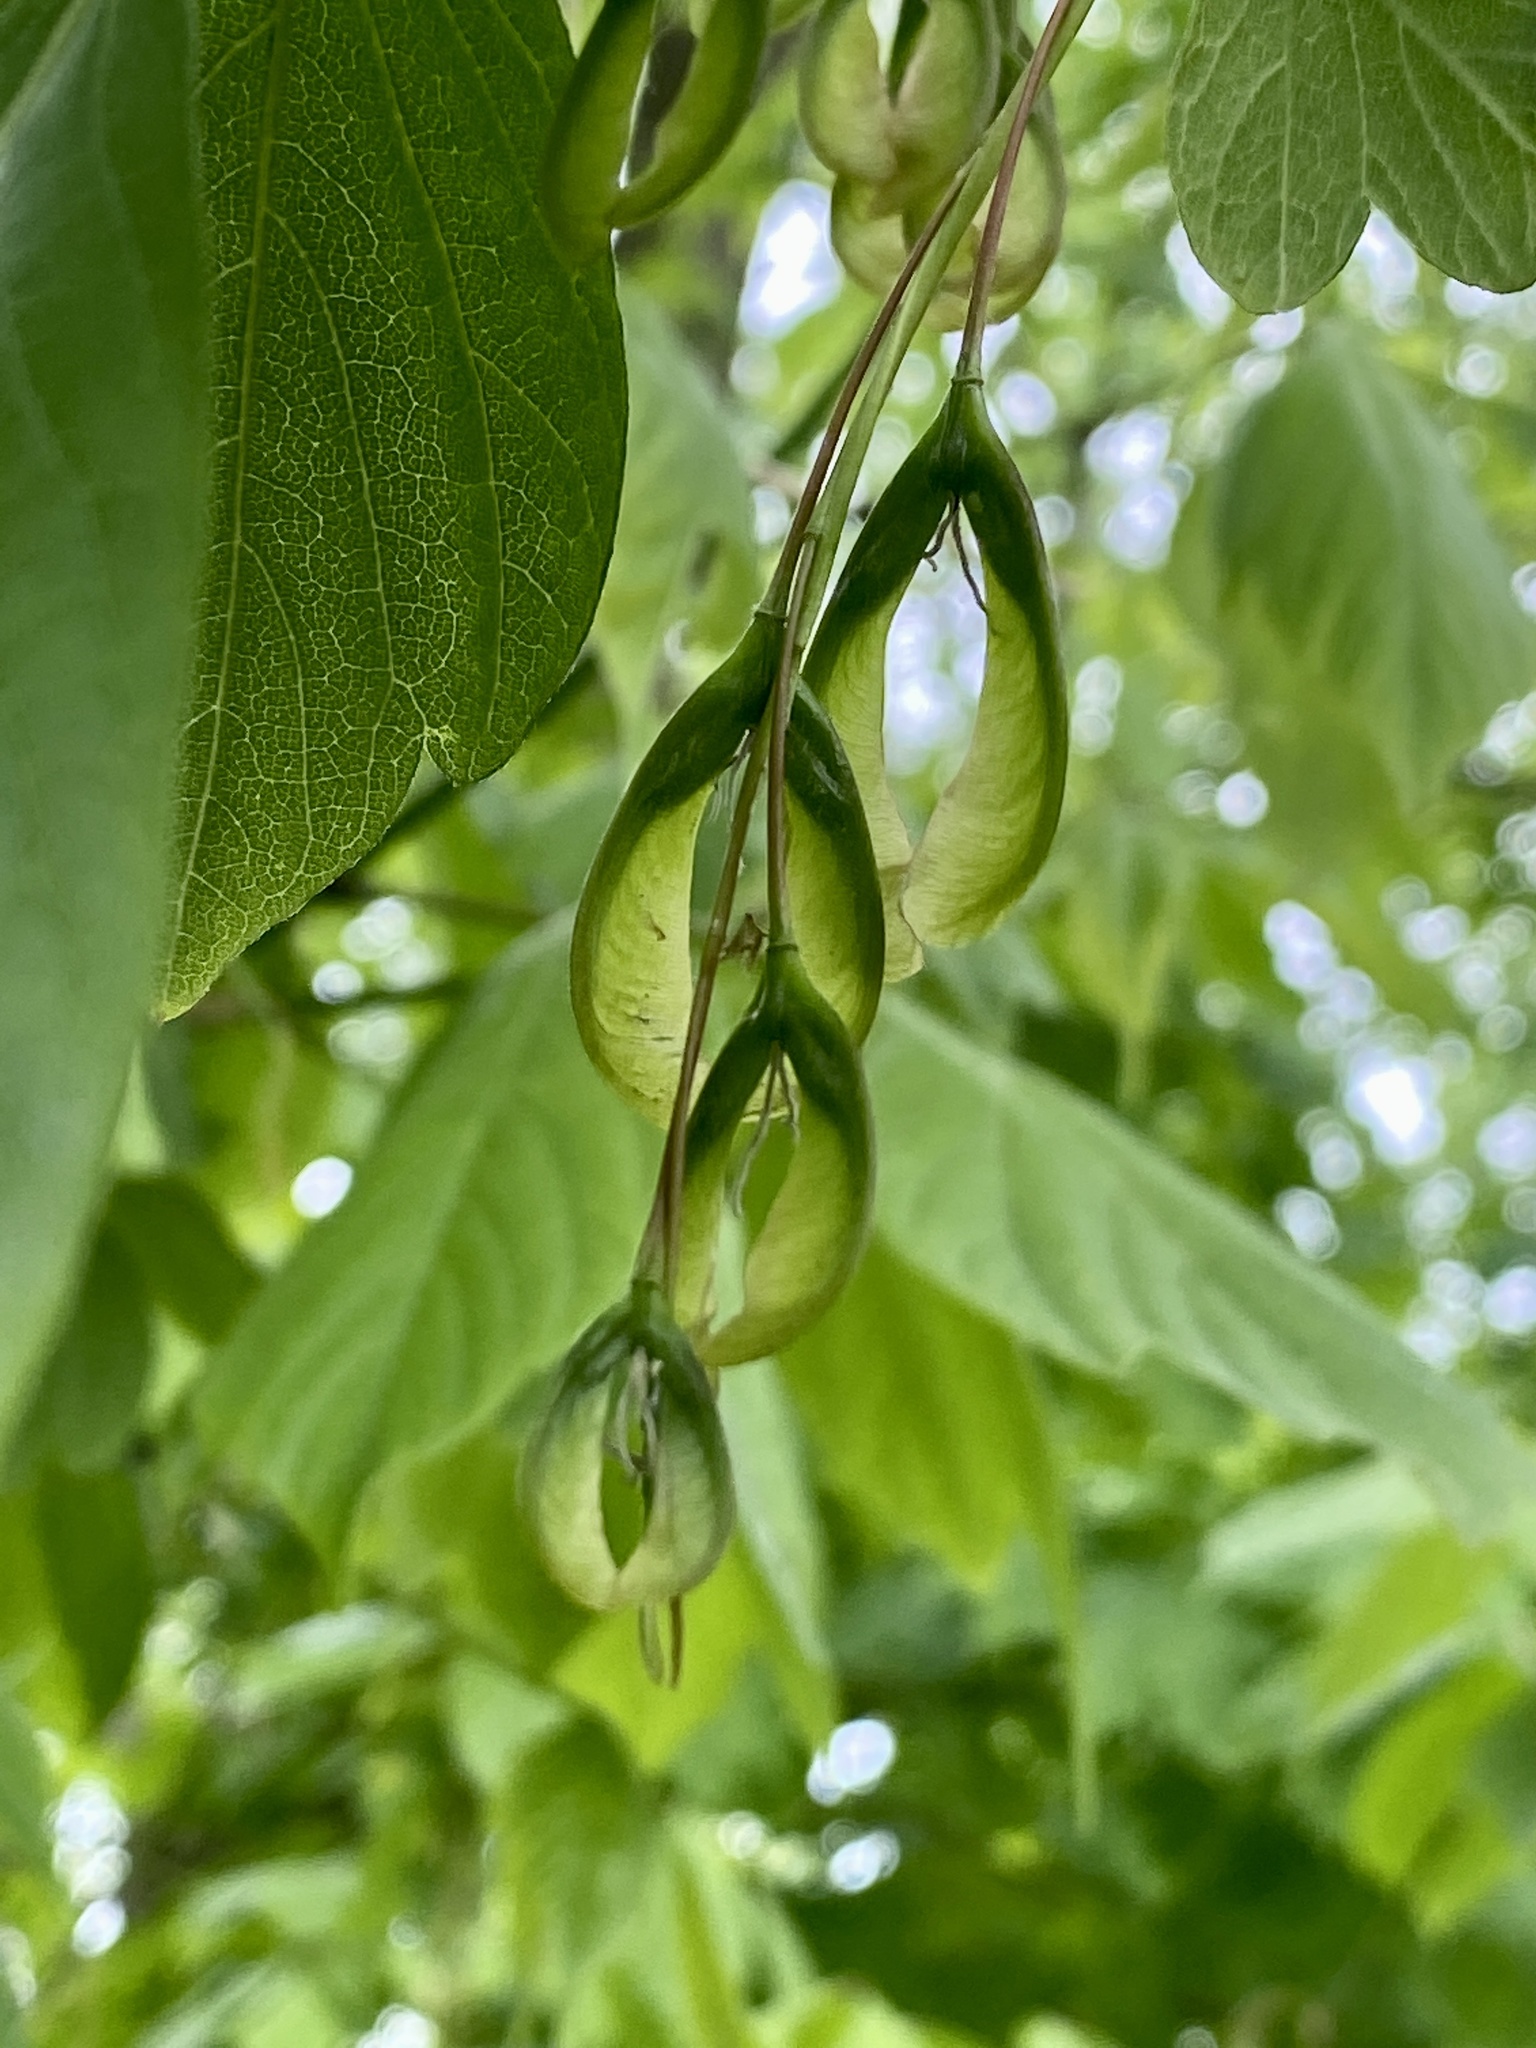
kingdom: Plantae
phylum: Tracheophyta
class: Magnoliopsida
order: Sapindales
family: Sapindaceae
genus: Acer
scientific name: Acer negundo
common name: Ashleaf maple
